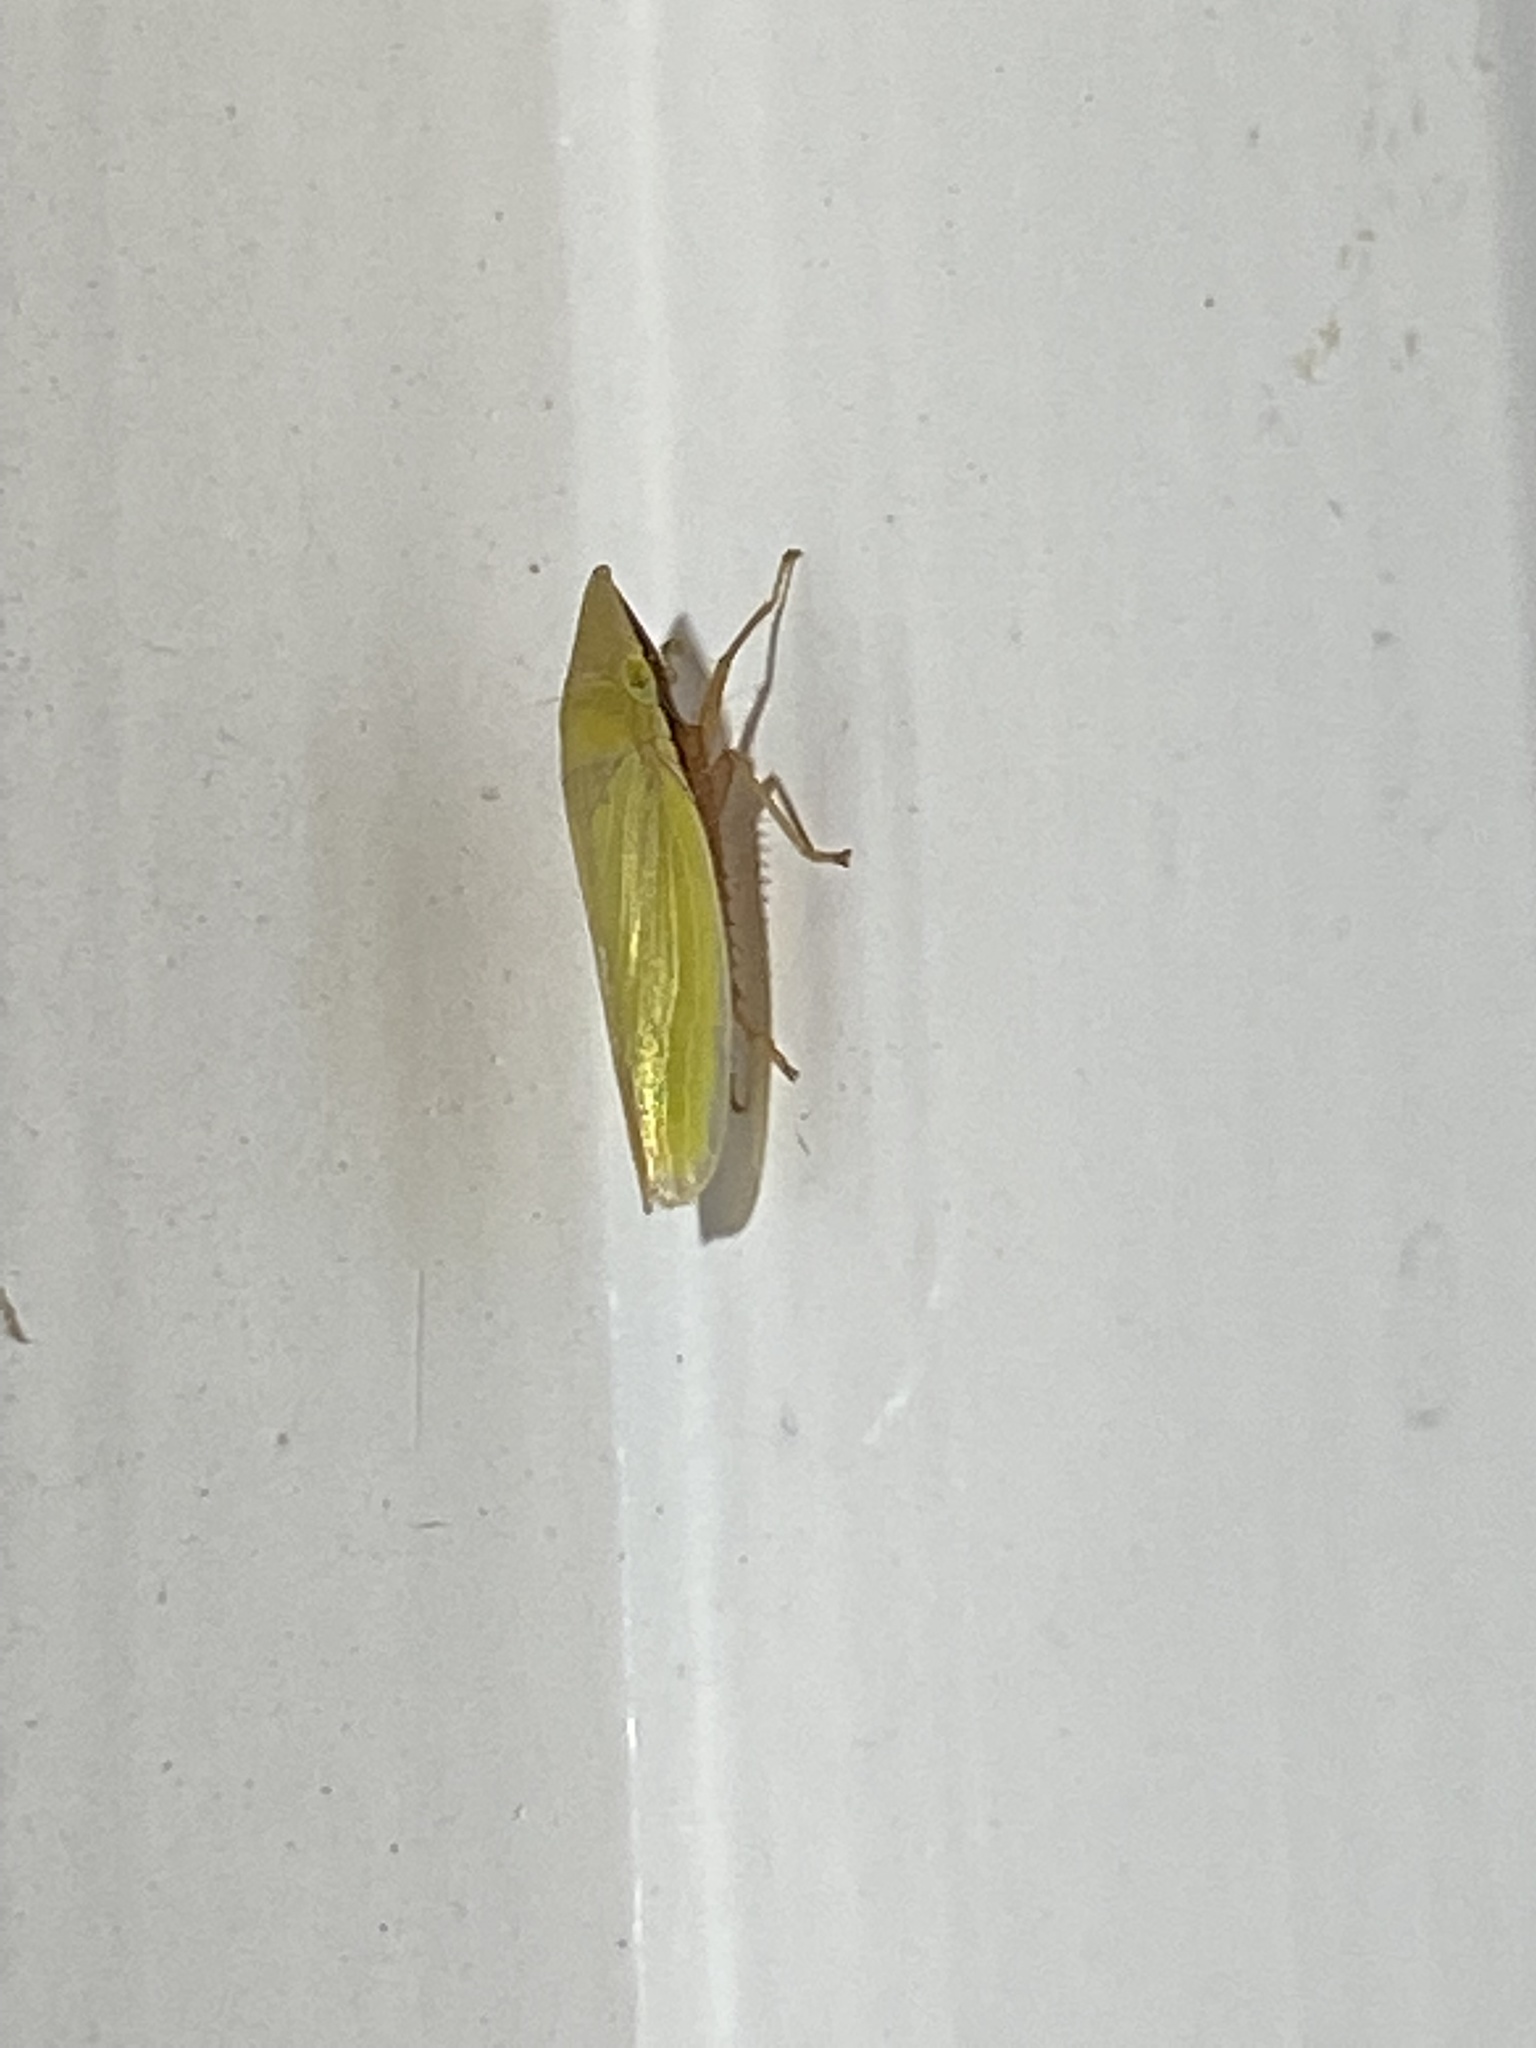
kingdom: Animalia
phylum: Arthropoda
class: Insecta
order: Hemiptera
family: Cicadellidae
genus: Draeculacephala
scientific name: Draeculacephala antica
